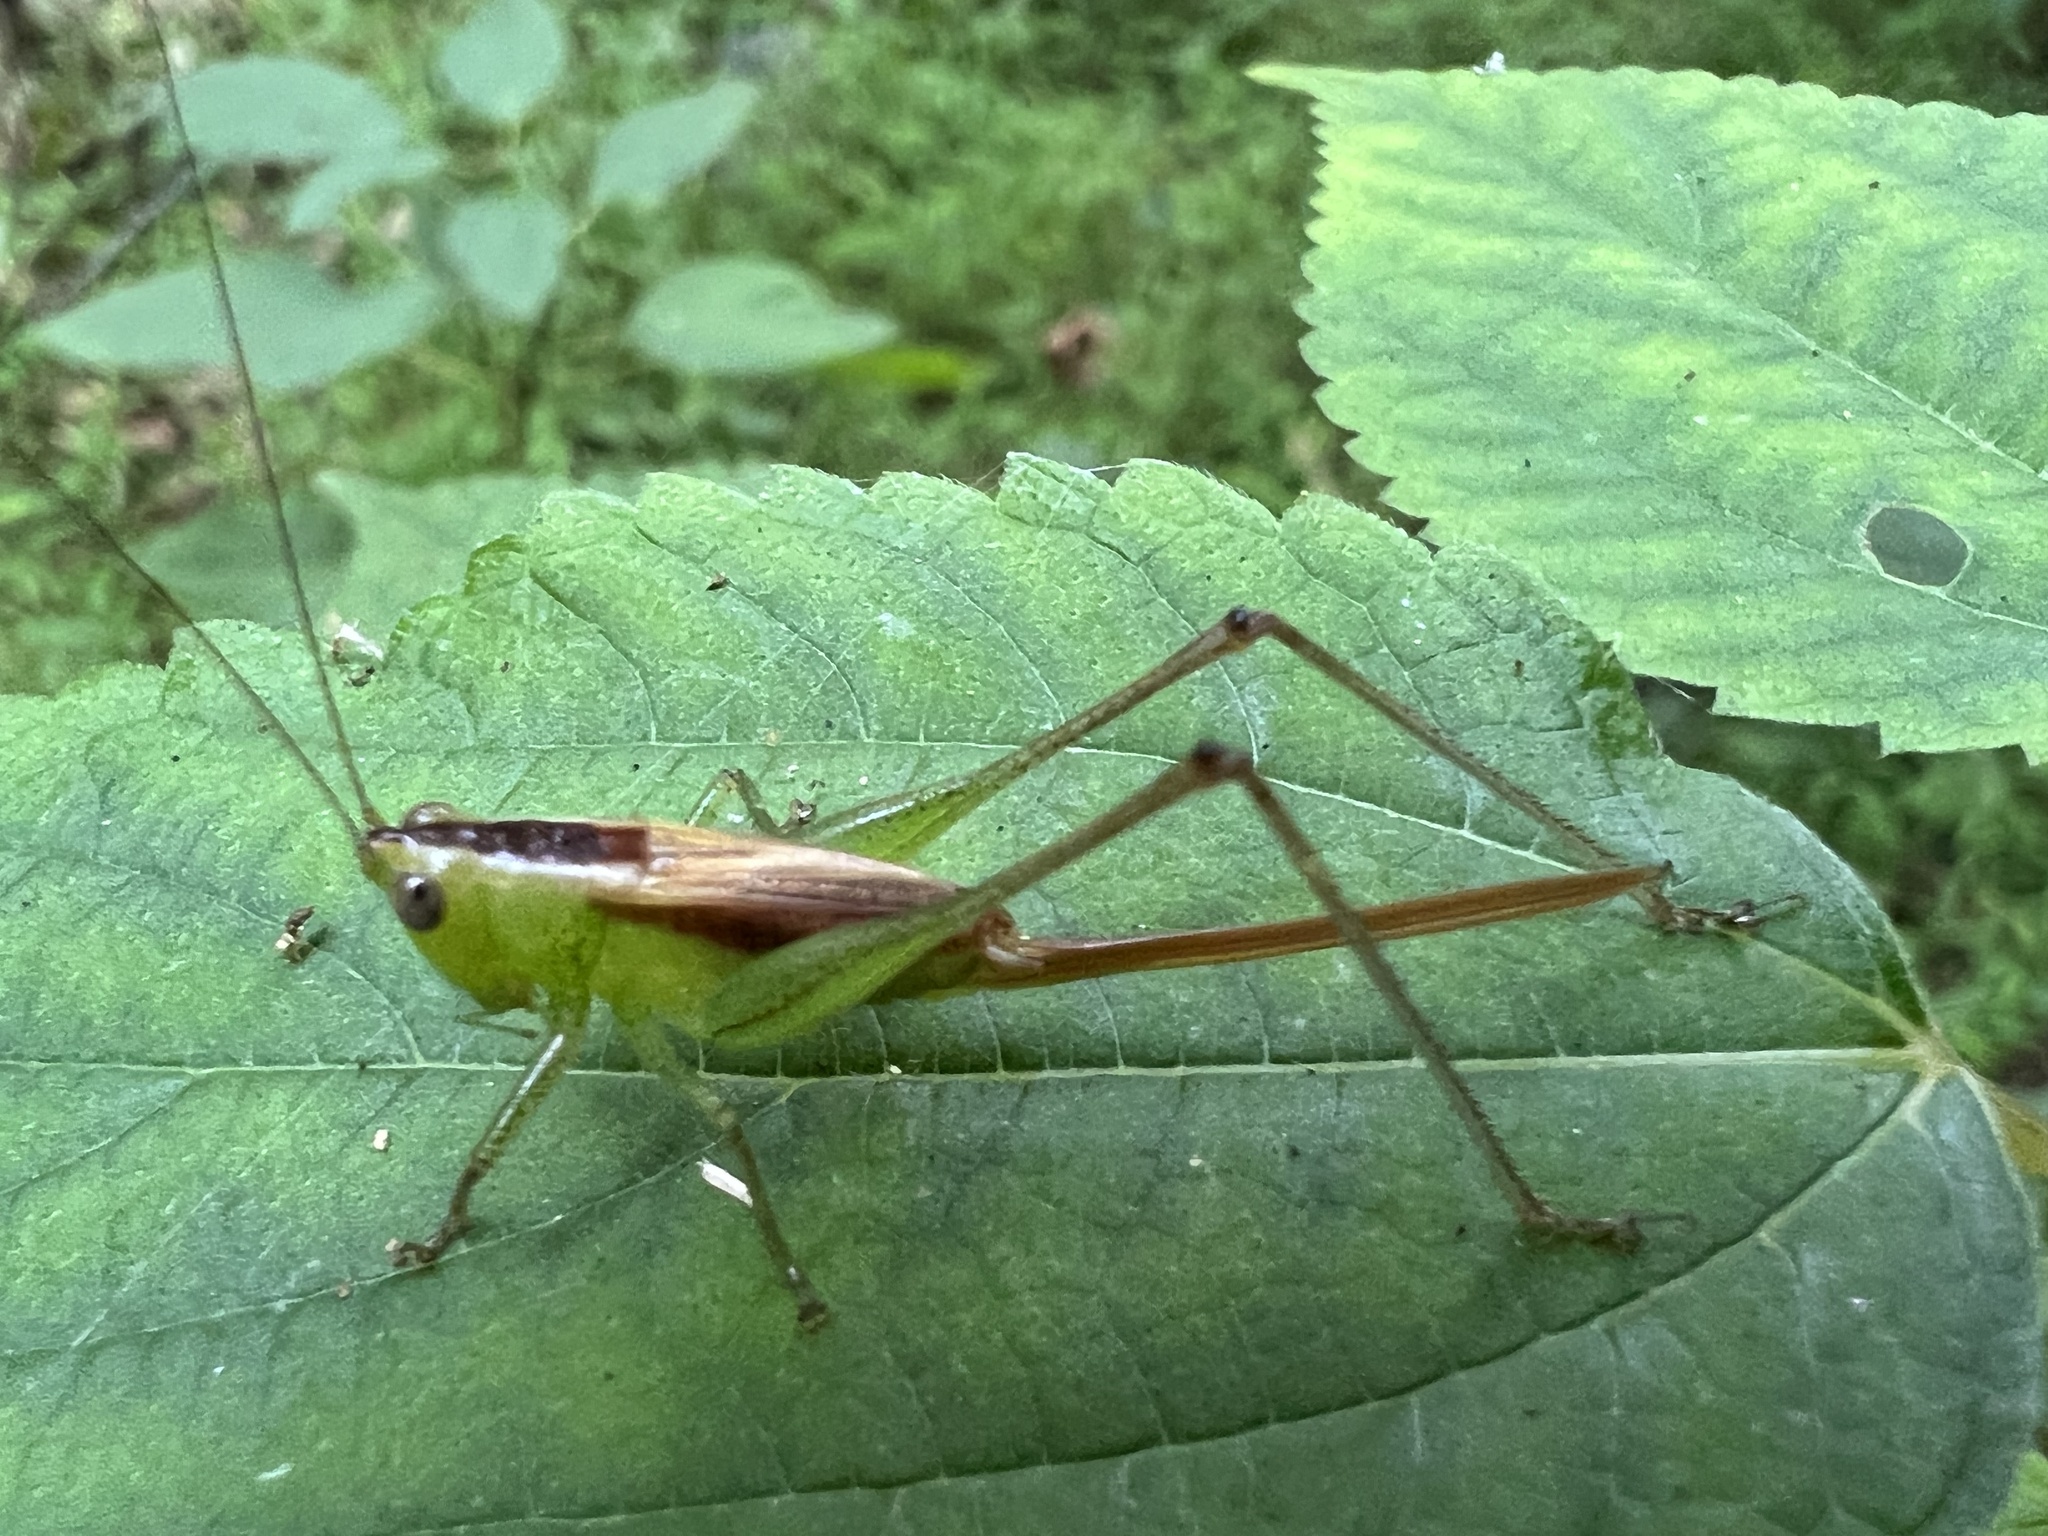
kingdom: Animalia
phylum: Arthropoda
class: Insecta
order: Orthoptera
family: Tettigoniidae
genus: Conocephalus
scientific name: Conocephalus brevipennis
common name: Short-winged meadow katydid
